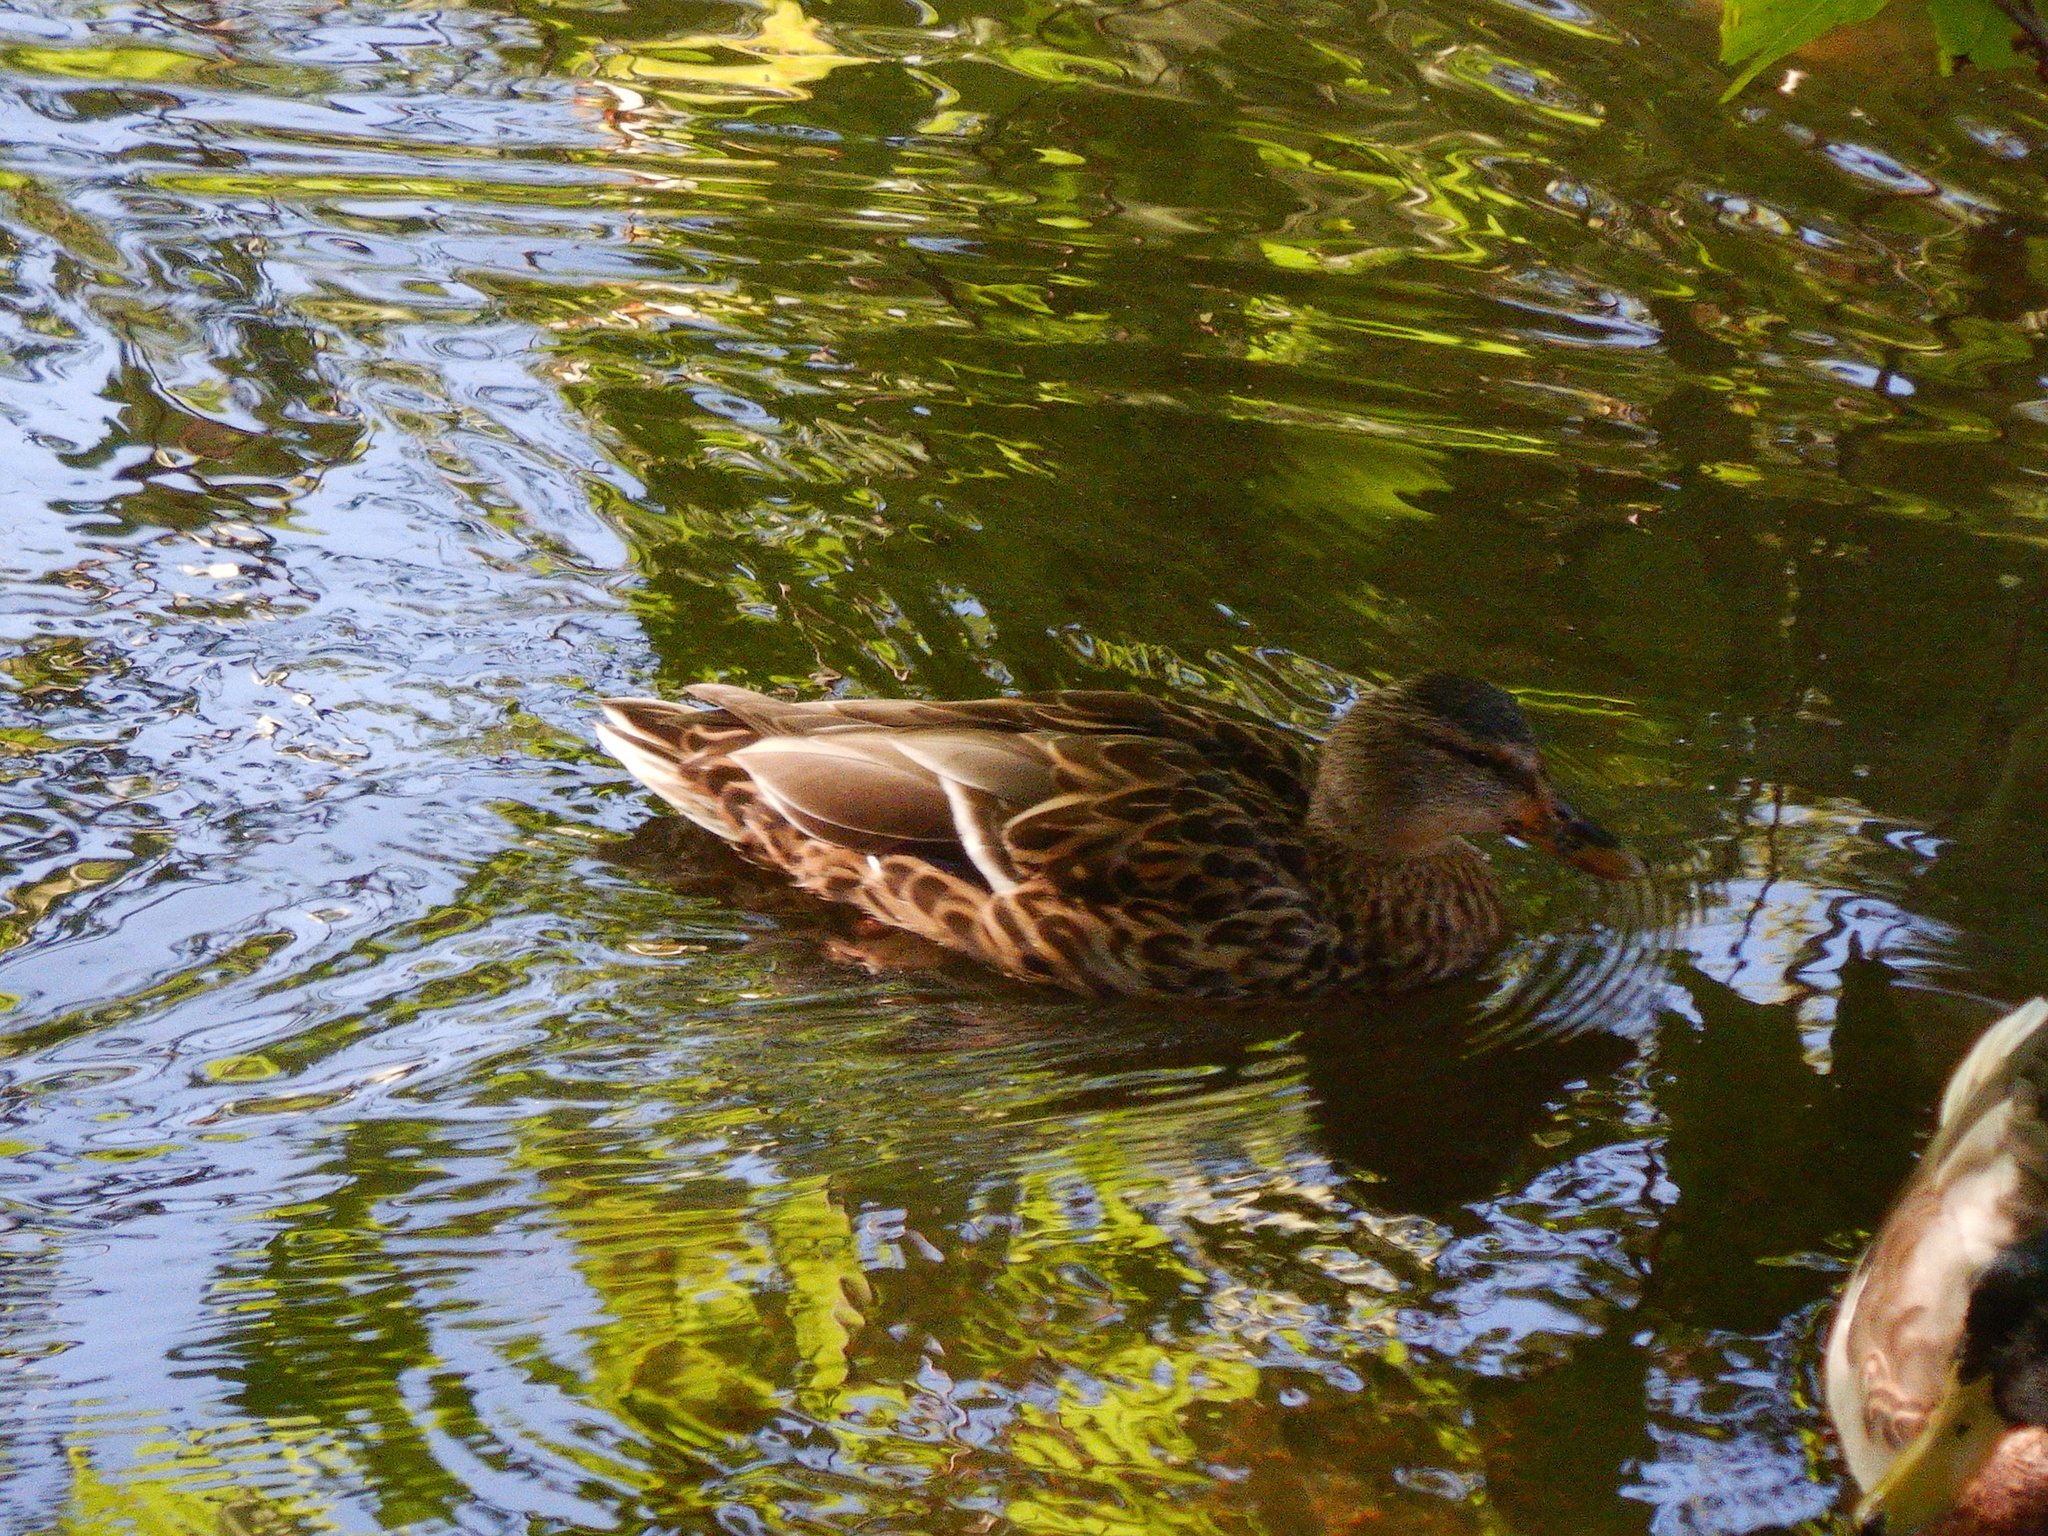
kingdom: Animalia
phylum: Chordata
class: Aves
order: Anseriformes
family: Anatidae
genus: Anas
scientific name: Anas platyrhynchos
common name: Mallard
